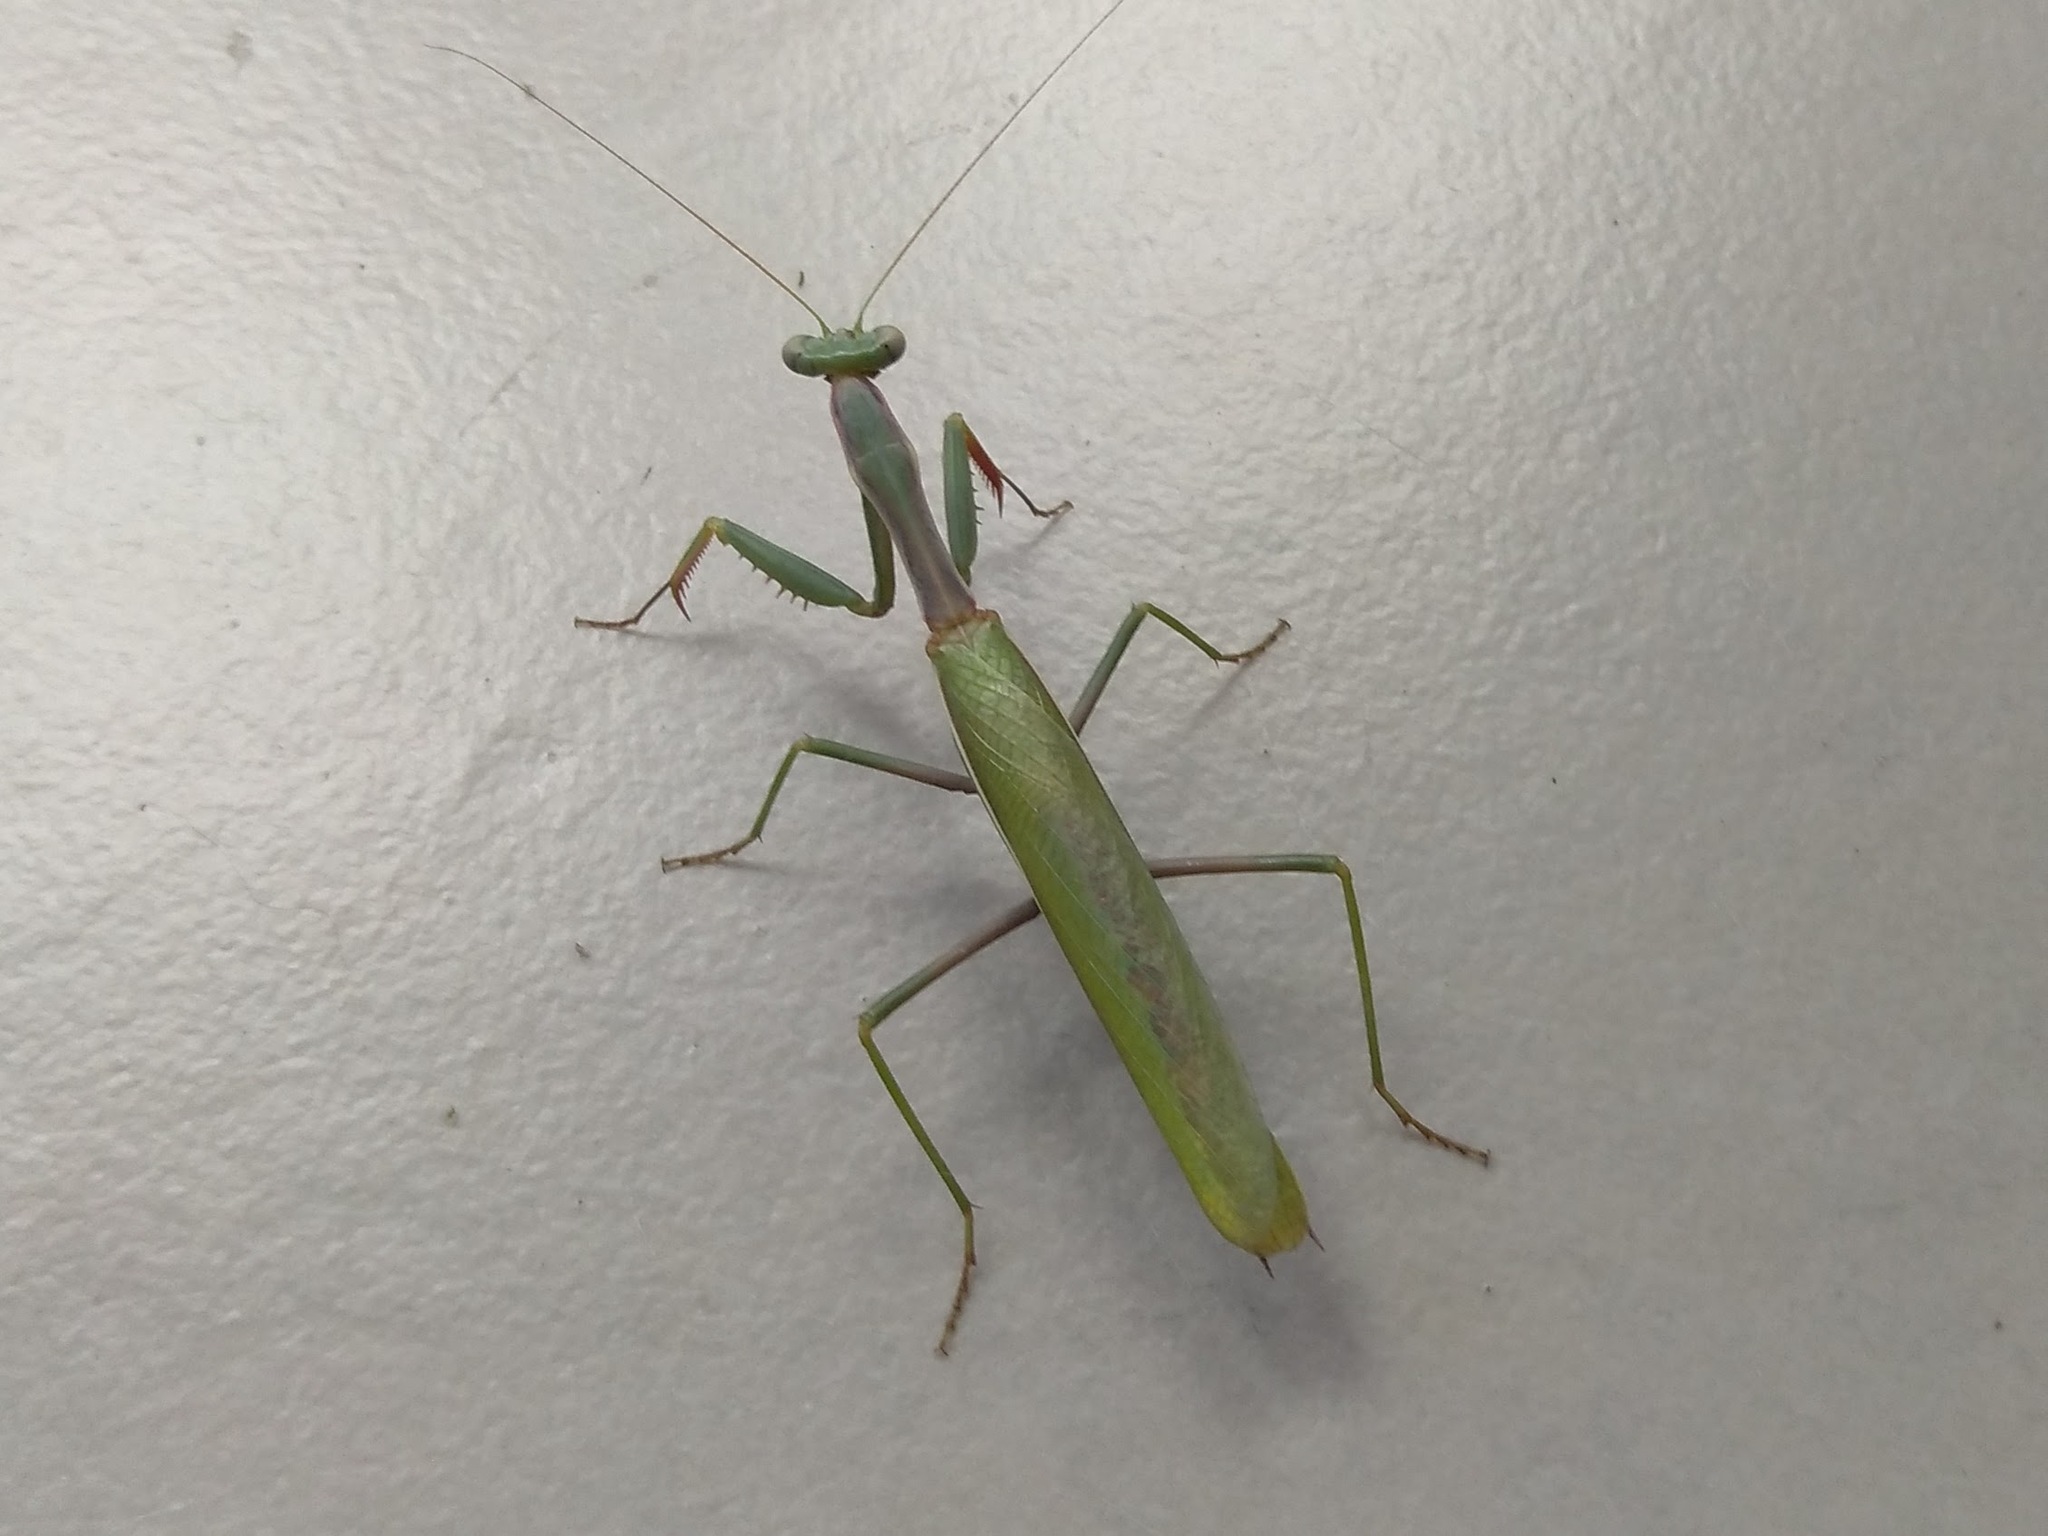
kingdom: Animalia
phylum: Arthropoda
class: Insecta
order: Mantodea
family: Eremiaphilidae
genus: Iris
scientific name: Iris oratoria
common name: Mediterranean mantis
